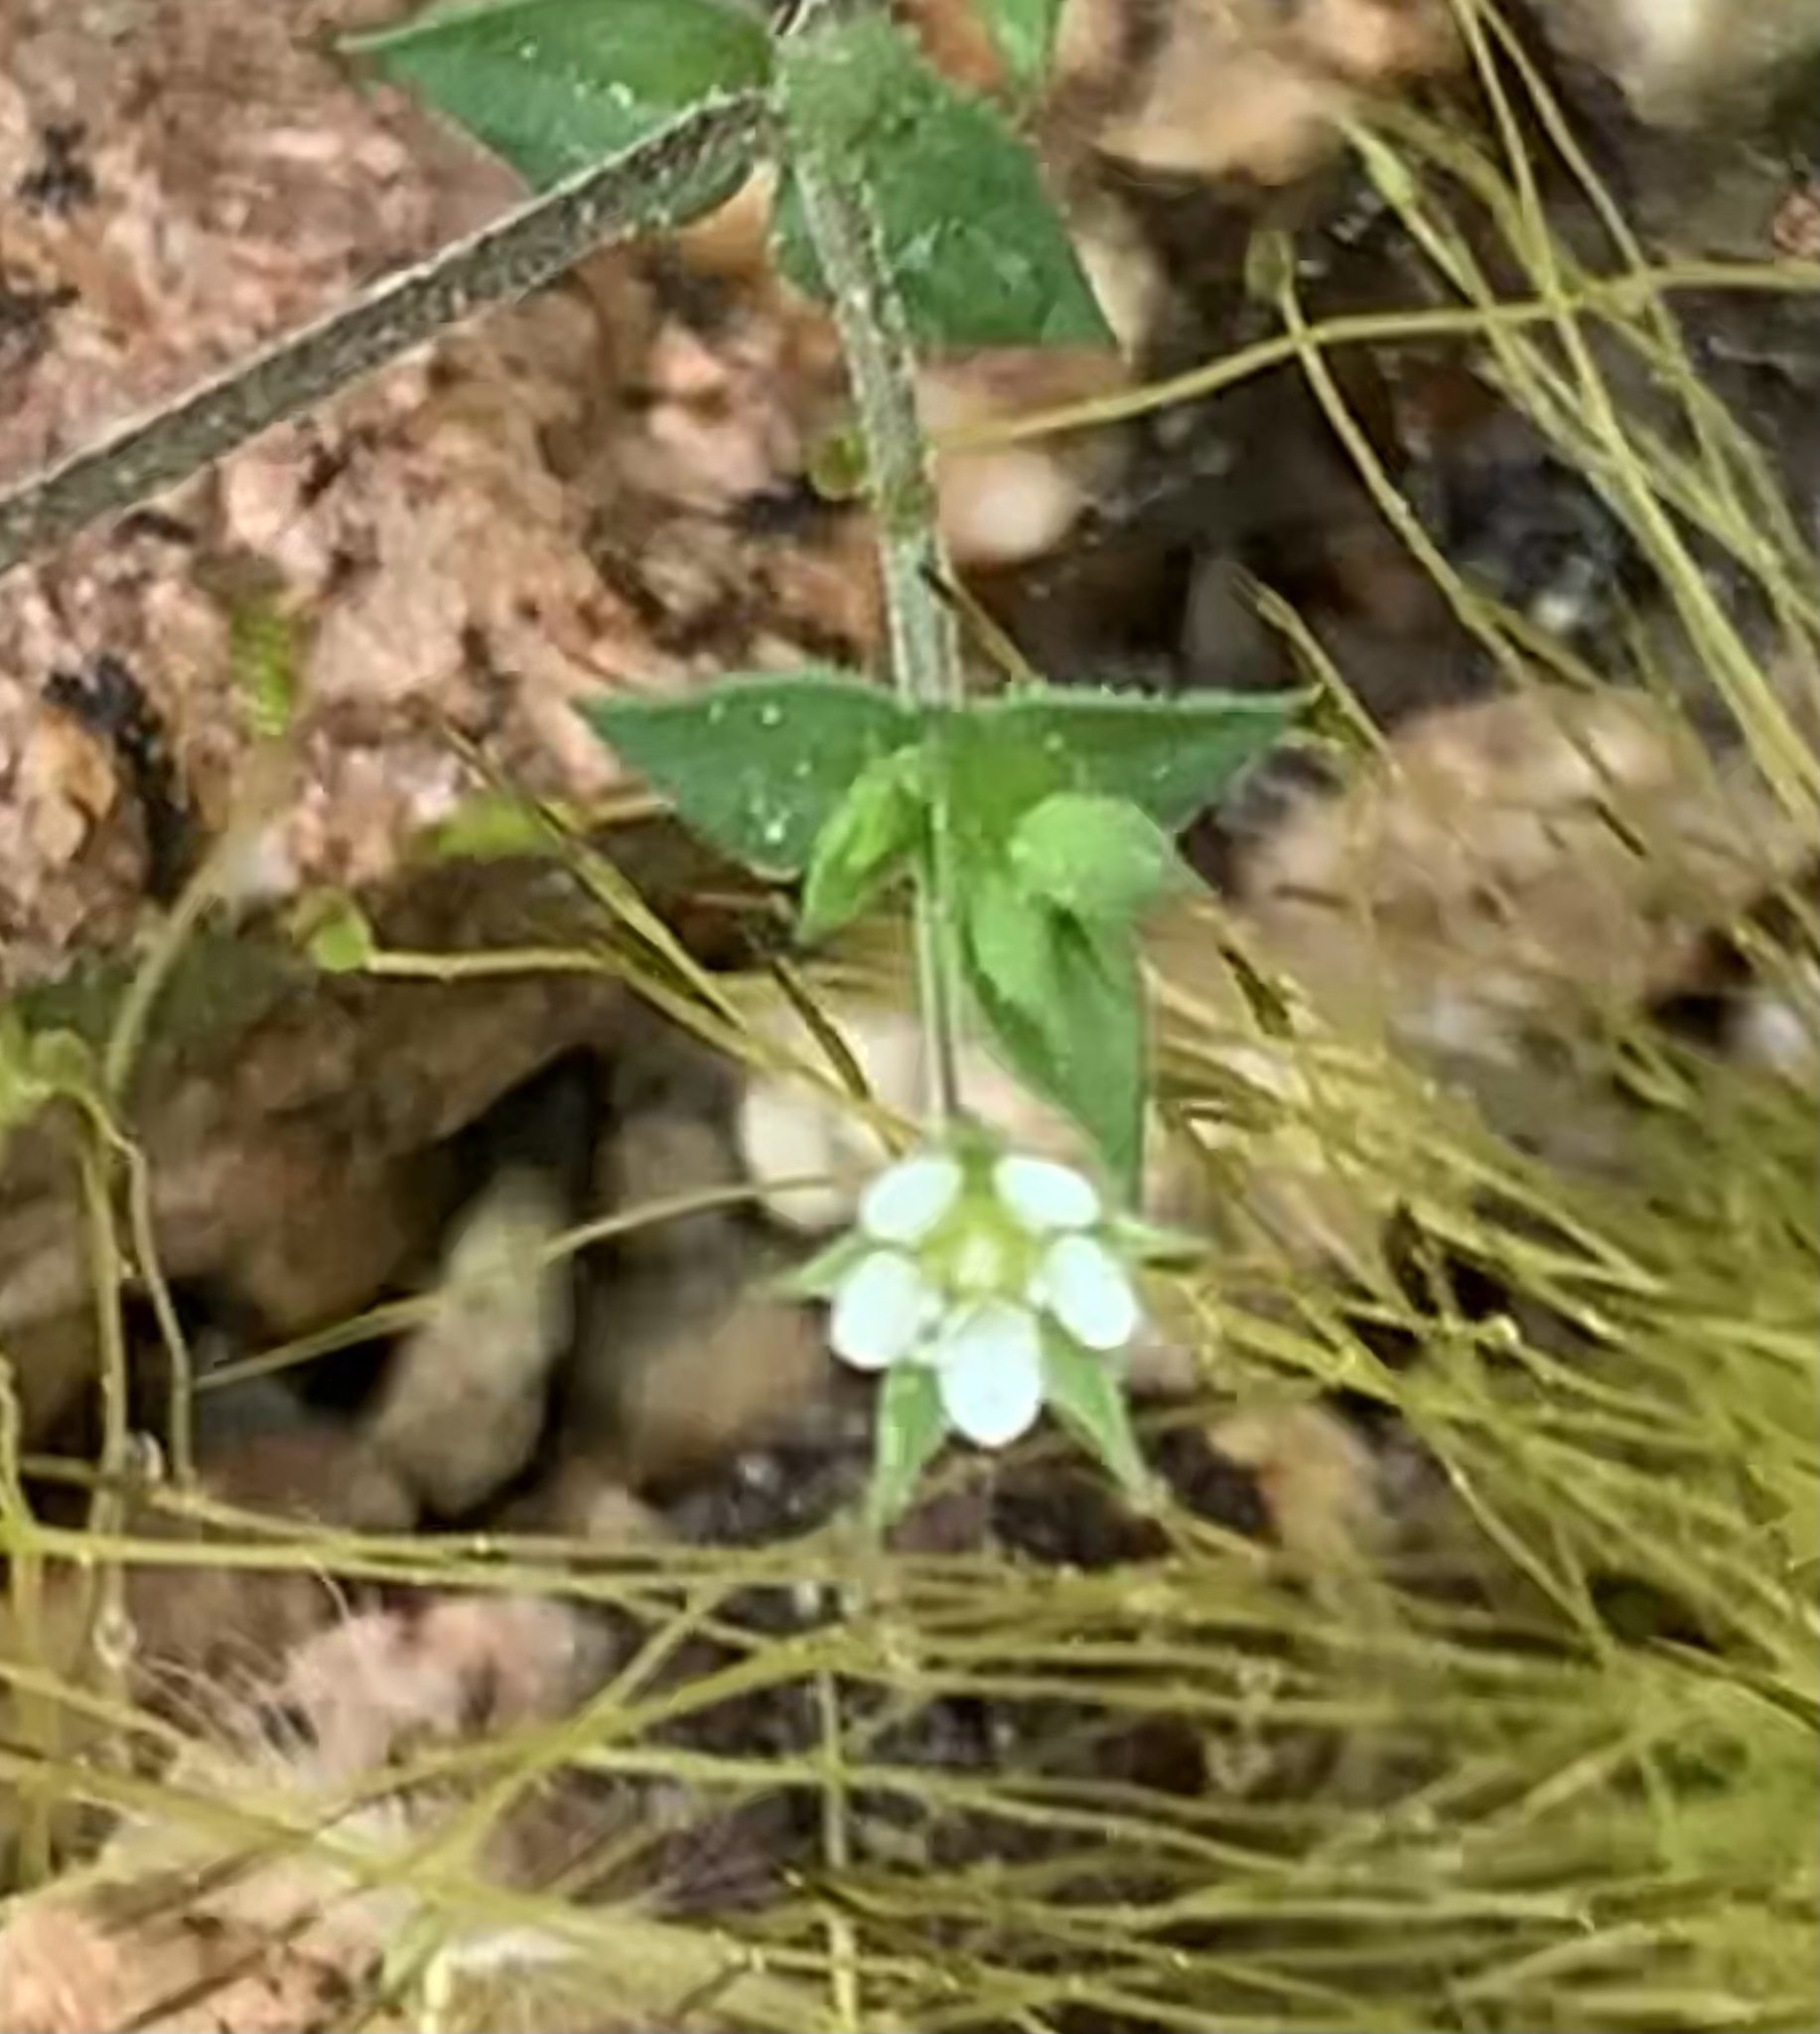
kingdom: Plantae
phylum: Tracheophyta
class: Magnoliopsida
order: Caryophyllales
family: Caryophyllaceae
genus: Arenaria
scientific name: Arenaria serpyllifolia
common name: Thyme-leaved sandwort
